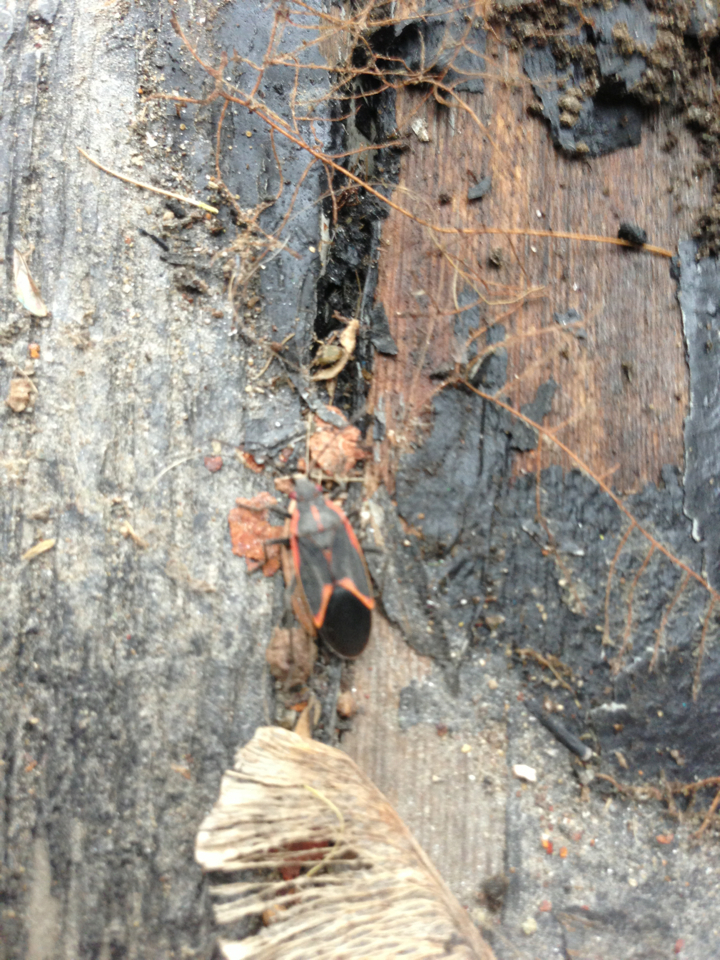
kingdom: Animalia
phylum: Arthropoda
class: Insecta
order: Hemiptera
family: Rhopalidae
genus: Boisea
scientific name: Boisea trivittata
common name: Boxelder bug
